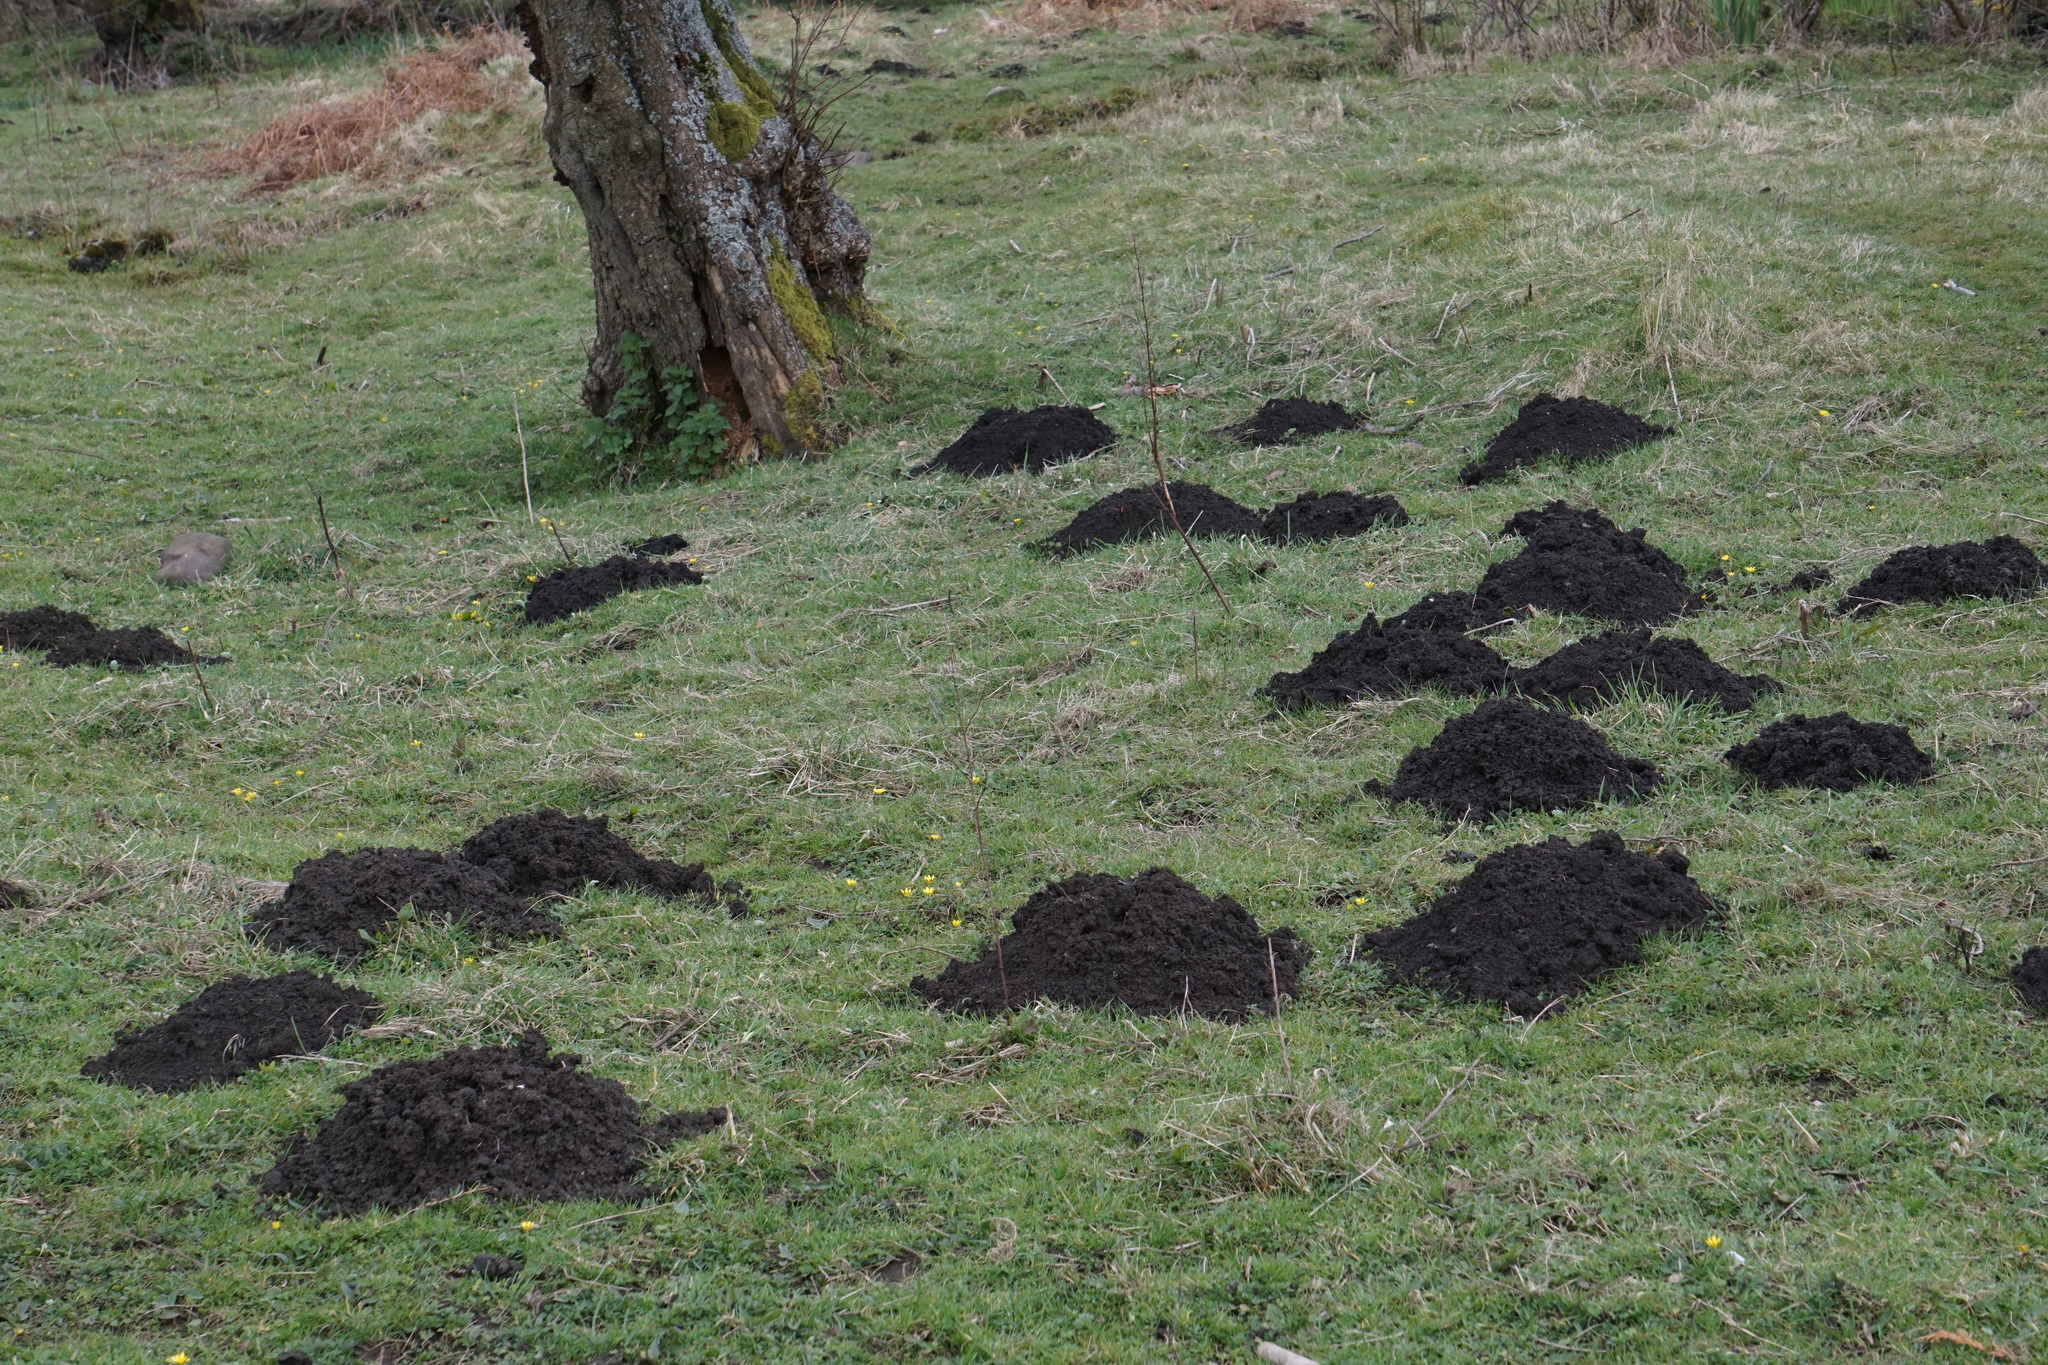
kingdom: Animalia
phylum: Chordata
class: Mammalia
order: Soricomorpha
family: Talpidae
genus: Talpa
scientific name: Talpa europaea
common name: European mole
